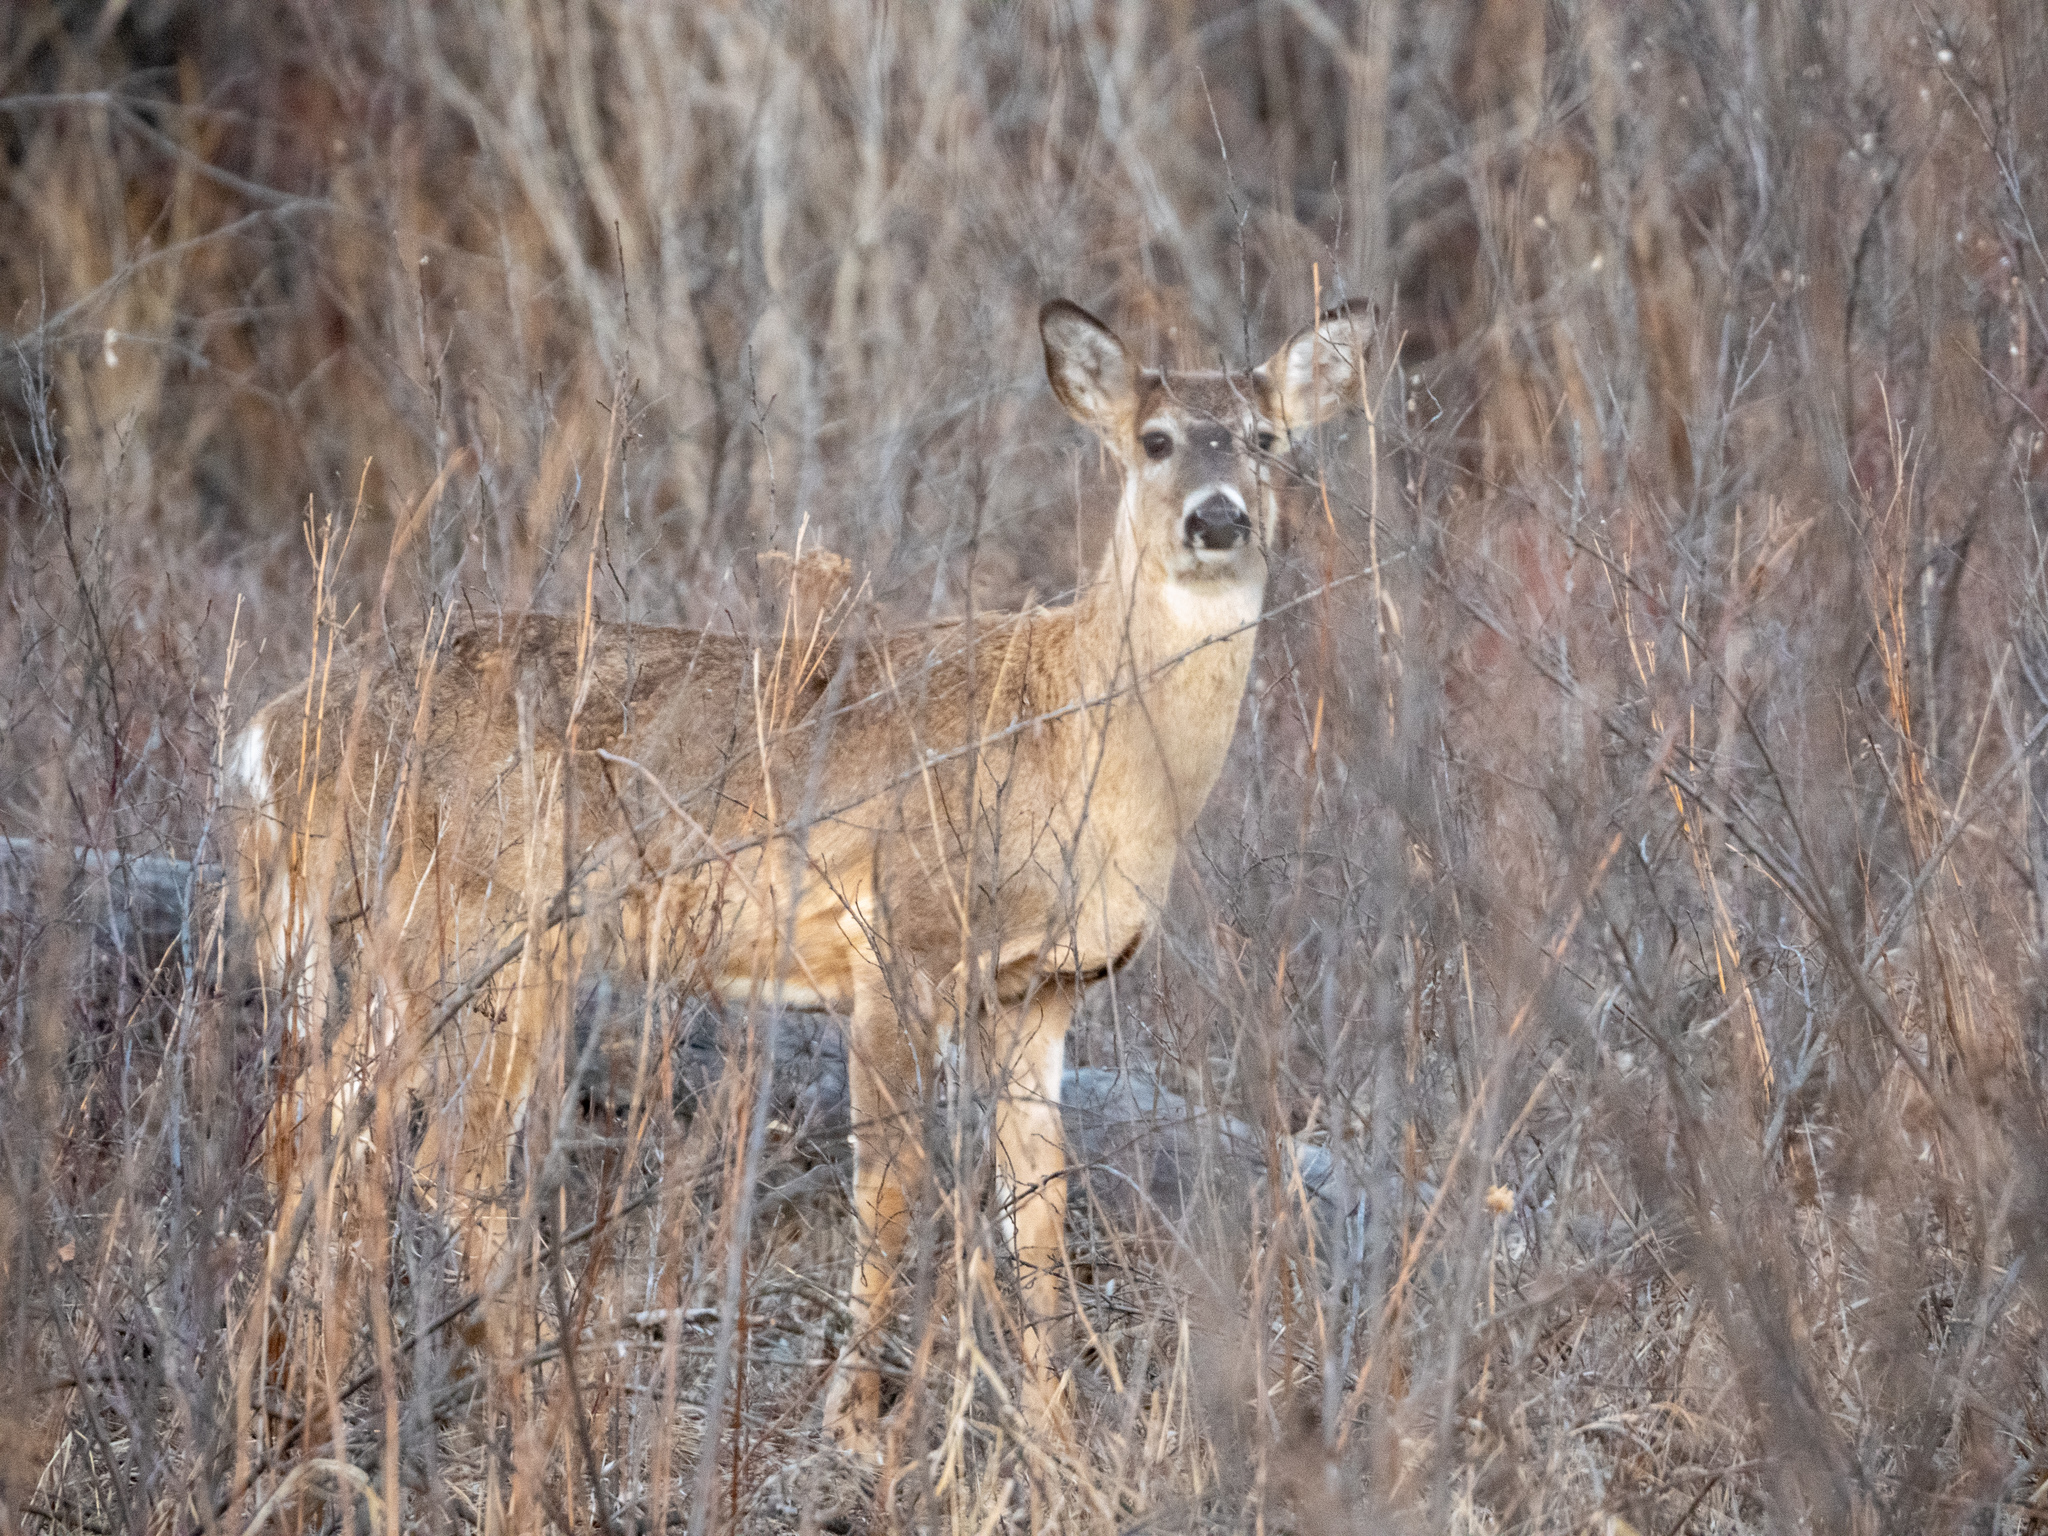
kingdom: Animalia
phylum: Chordata
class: Mammalia
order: Artiodactyla
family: Cervidae
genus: Odocoileus
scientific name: Odocoileus virginianus
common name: White-tailed deer
